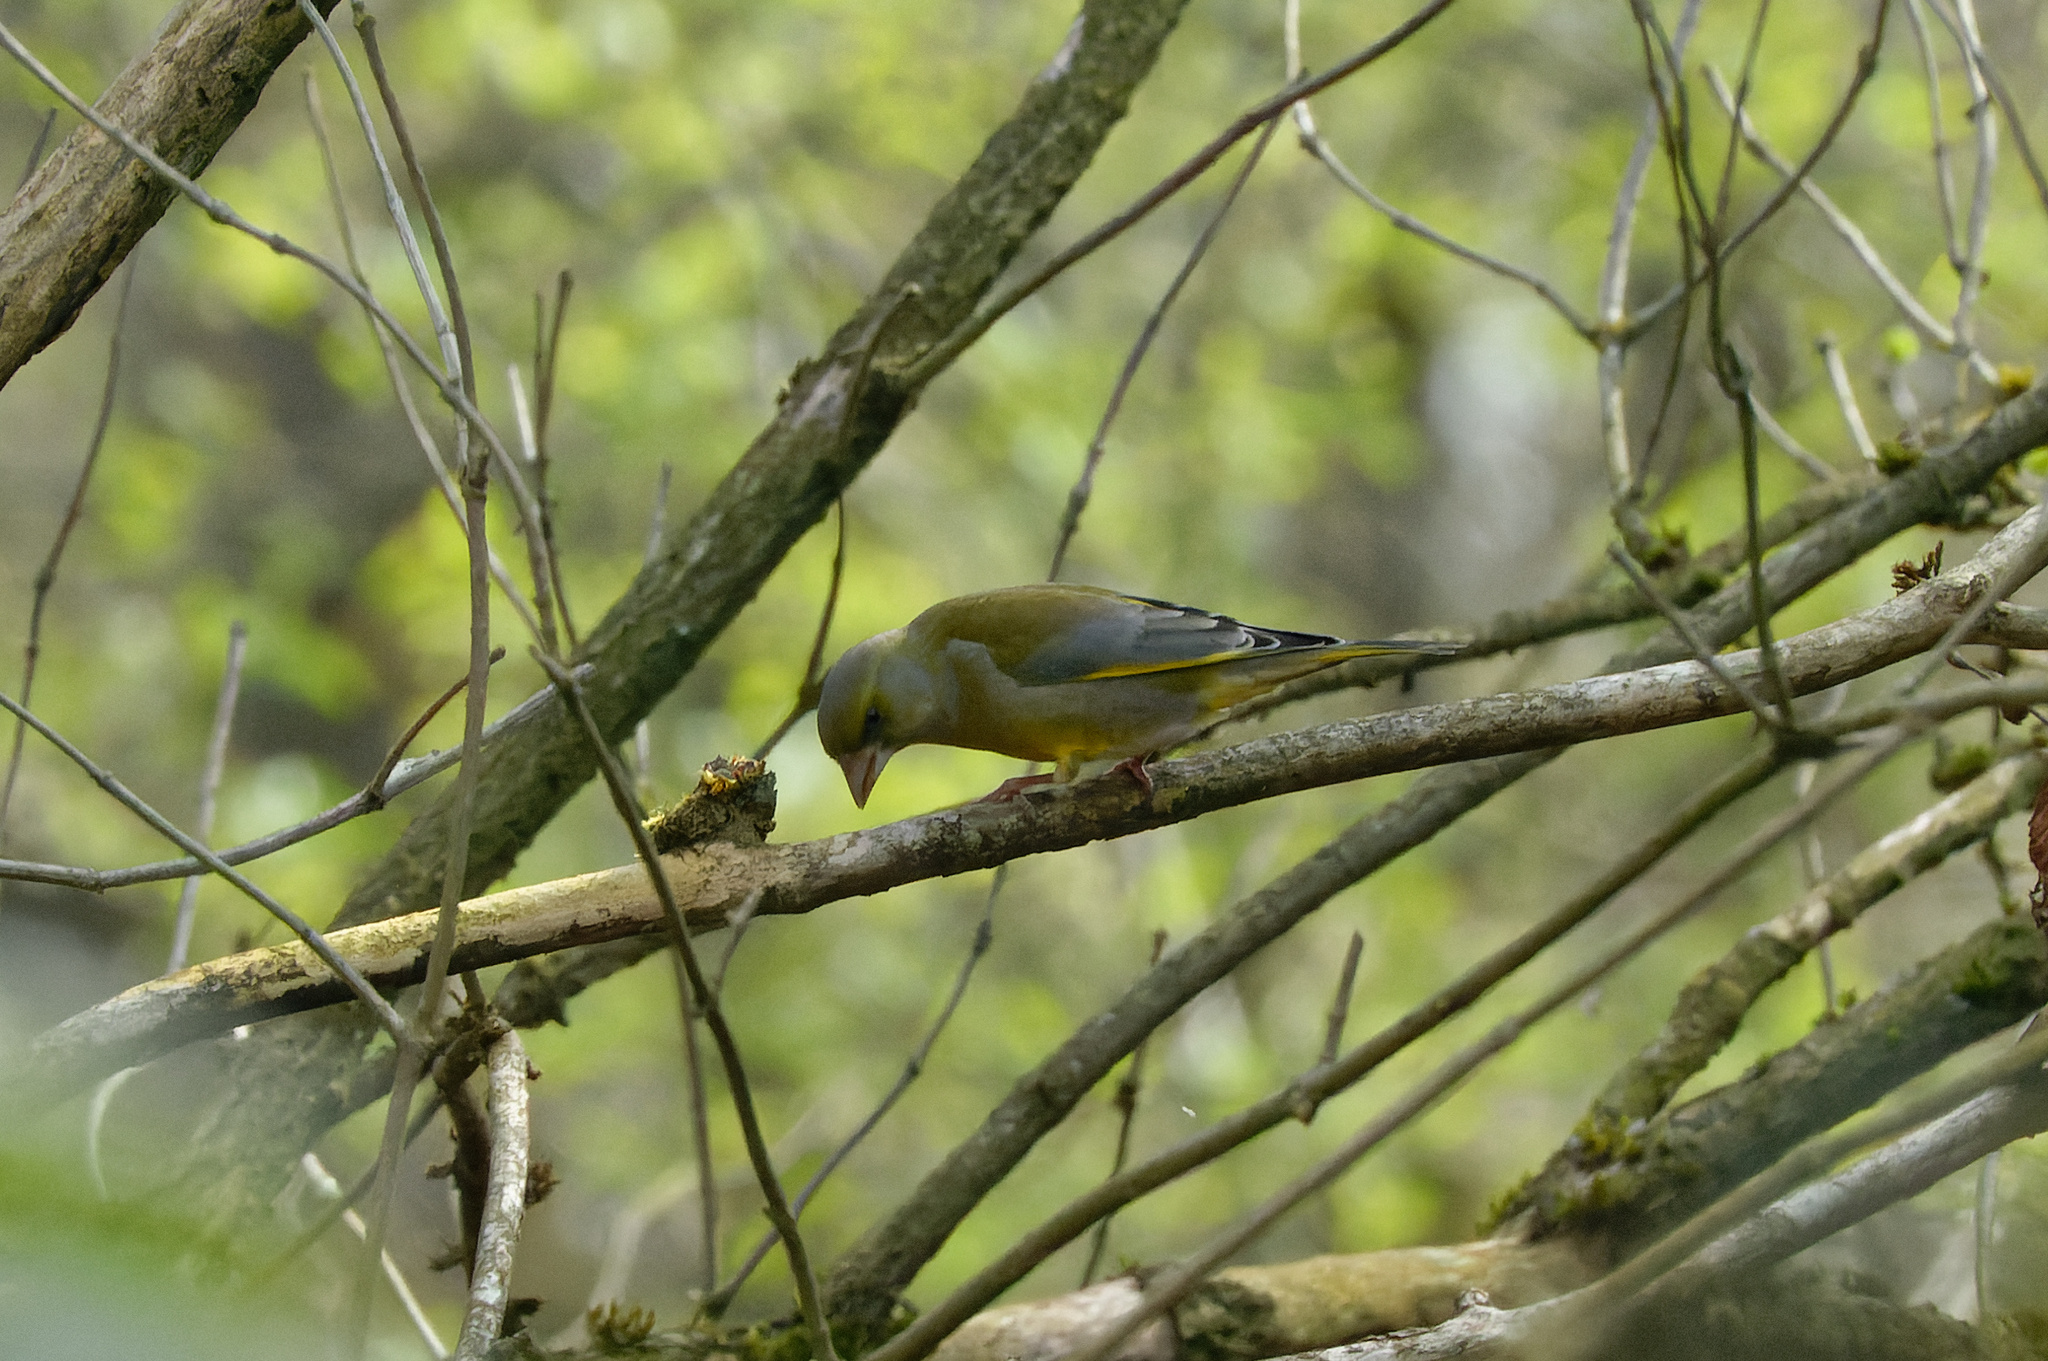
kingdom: Plantae
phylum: Tracheophyta
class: Liliopsida
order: Poales
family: Poaceae
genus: Chloris
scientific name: Chloris chloris
